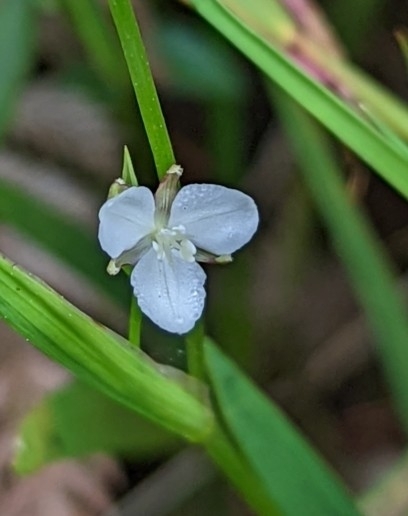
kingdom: Plantae
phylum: Tracheophyta
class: Liliopsida
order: Asparagales
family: Iridaceae
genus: Libertia
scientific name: Libertia colombiana
